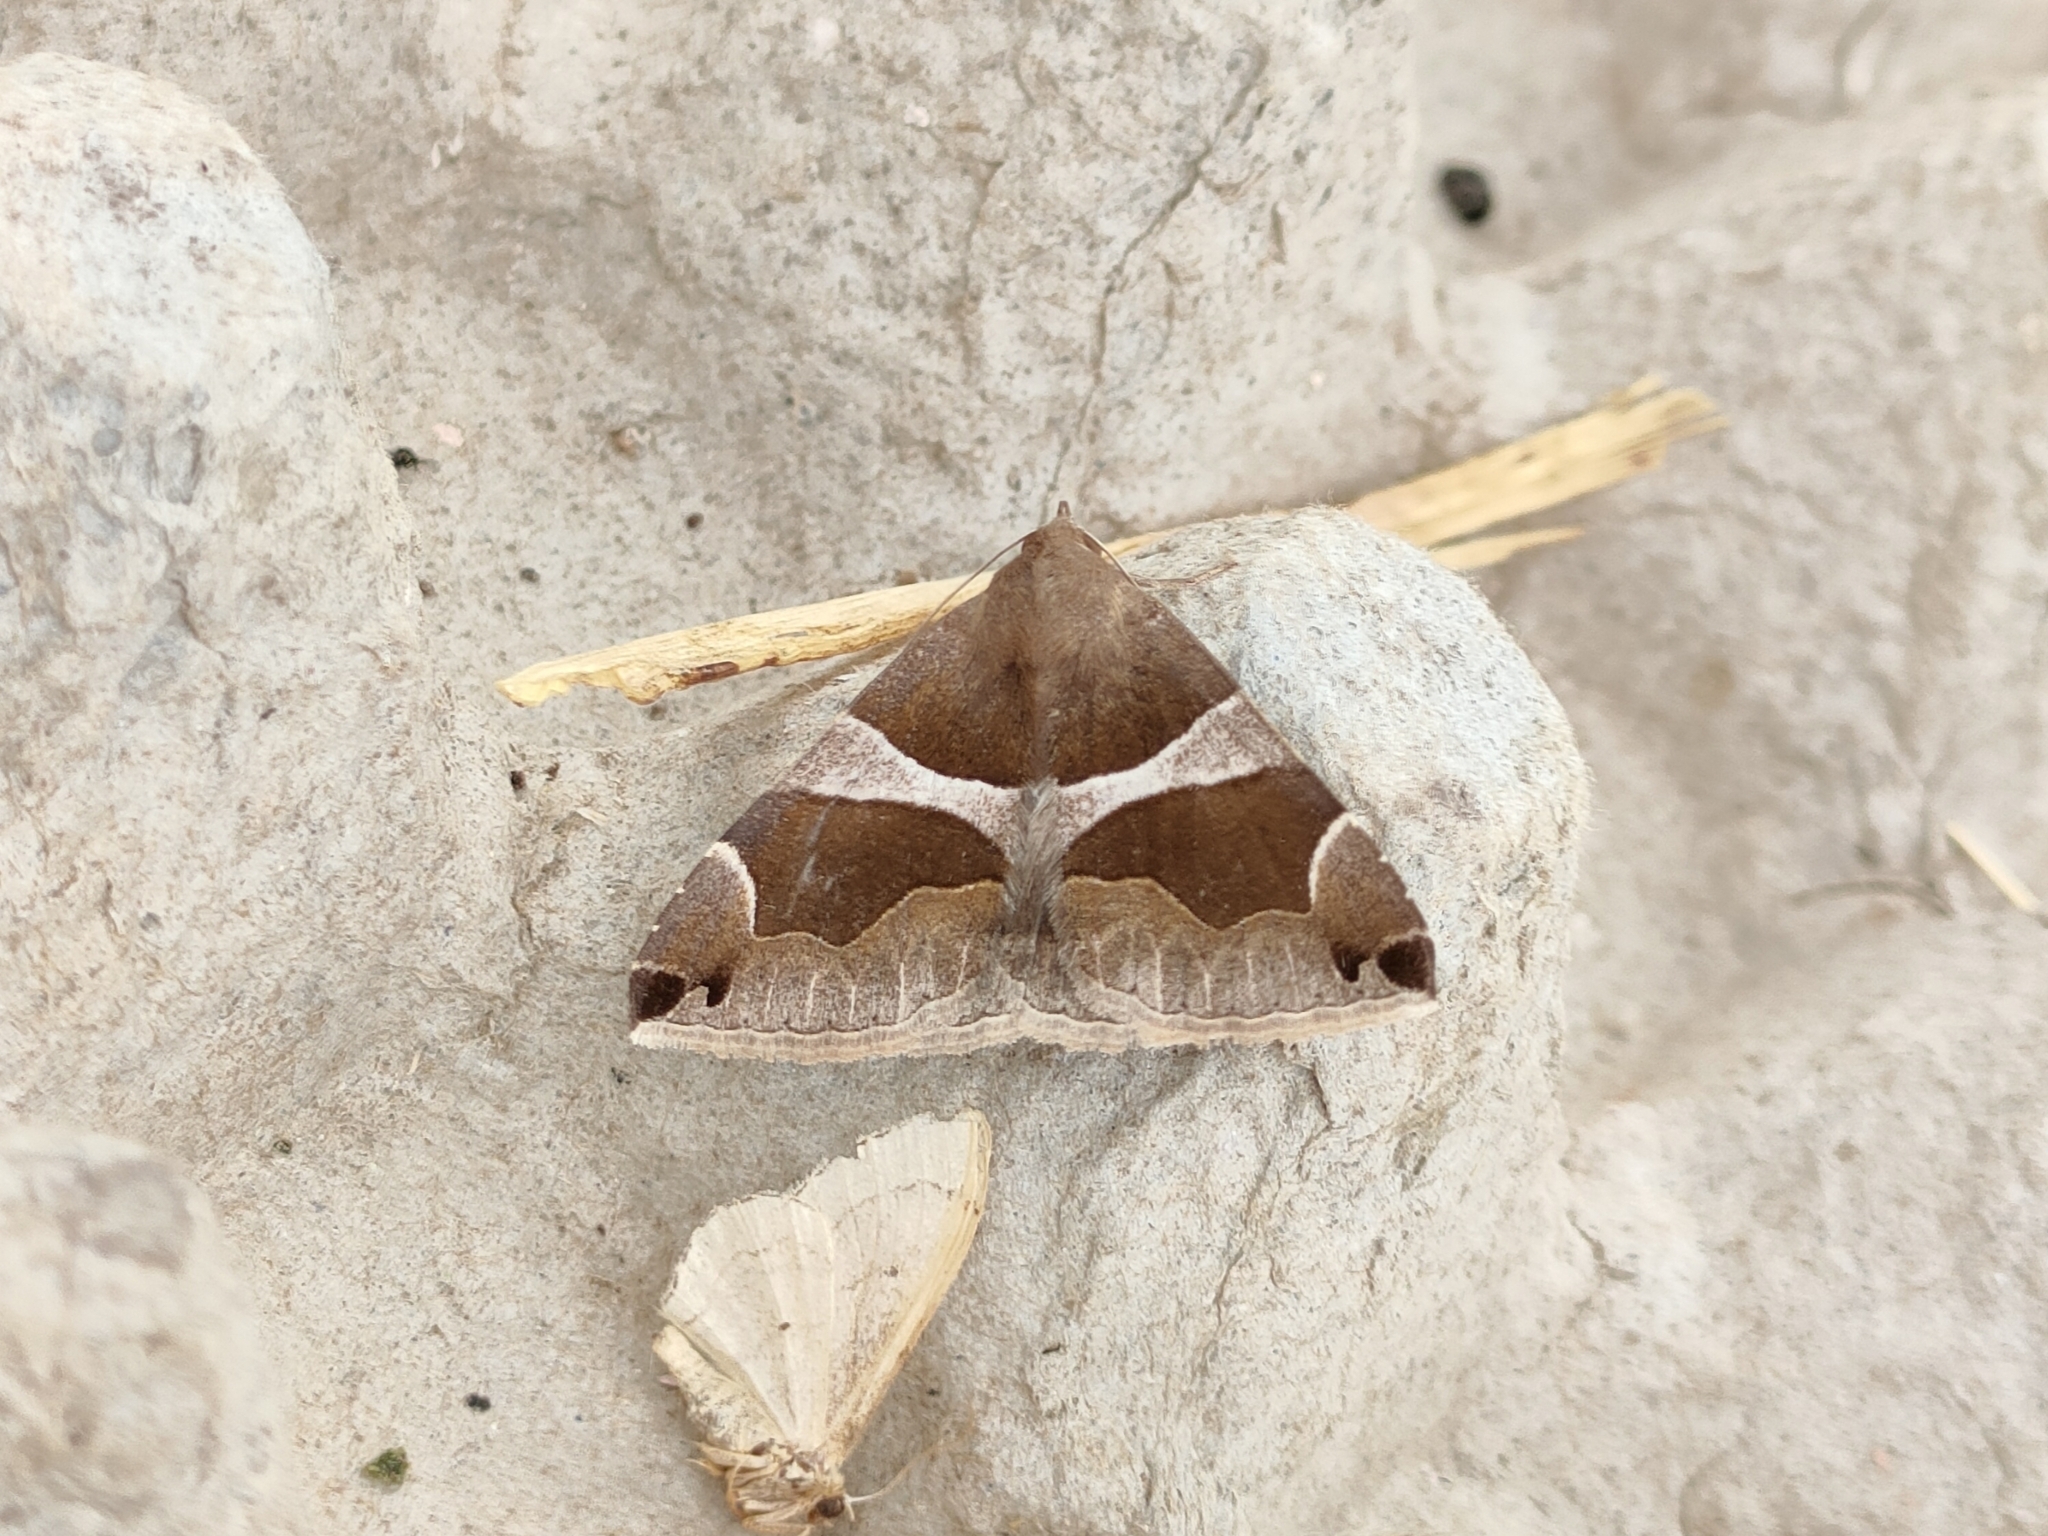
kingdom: Animalia
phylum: Arthropoda
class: Insecta
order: Lepidoptera
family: Erebidae
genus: Dysgonia
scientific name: Dysgonia algira
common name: Passenger
